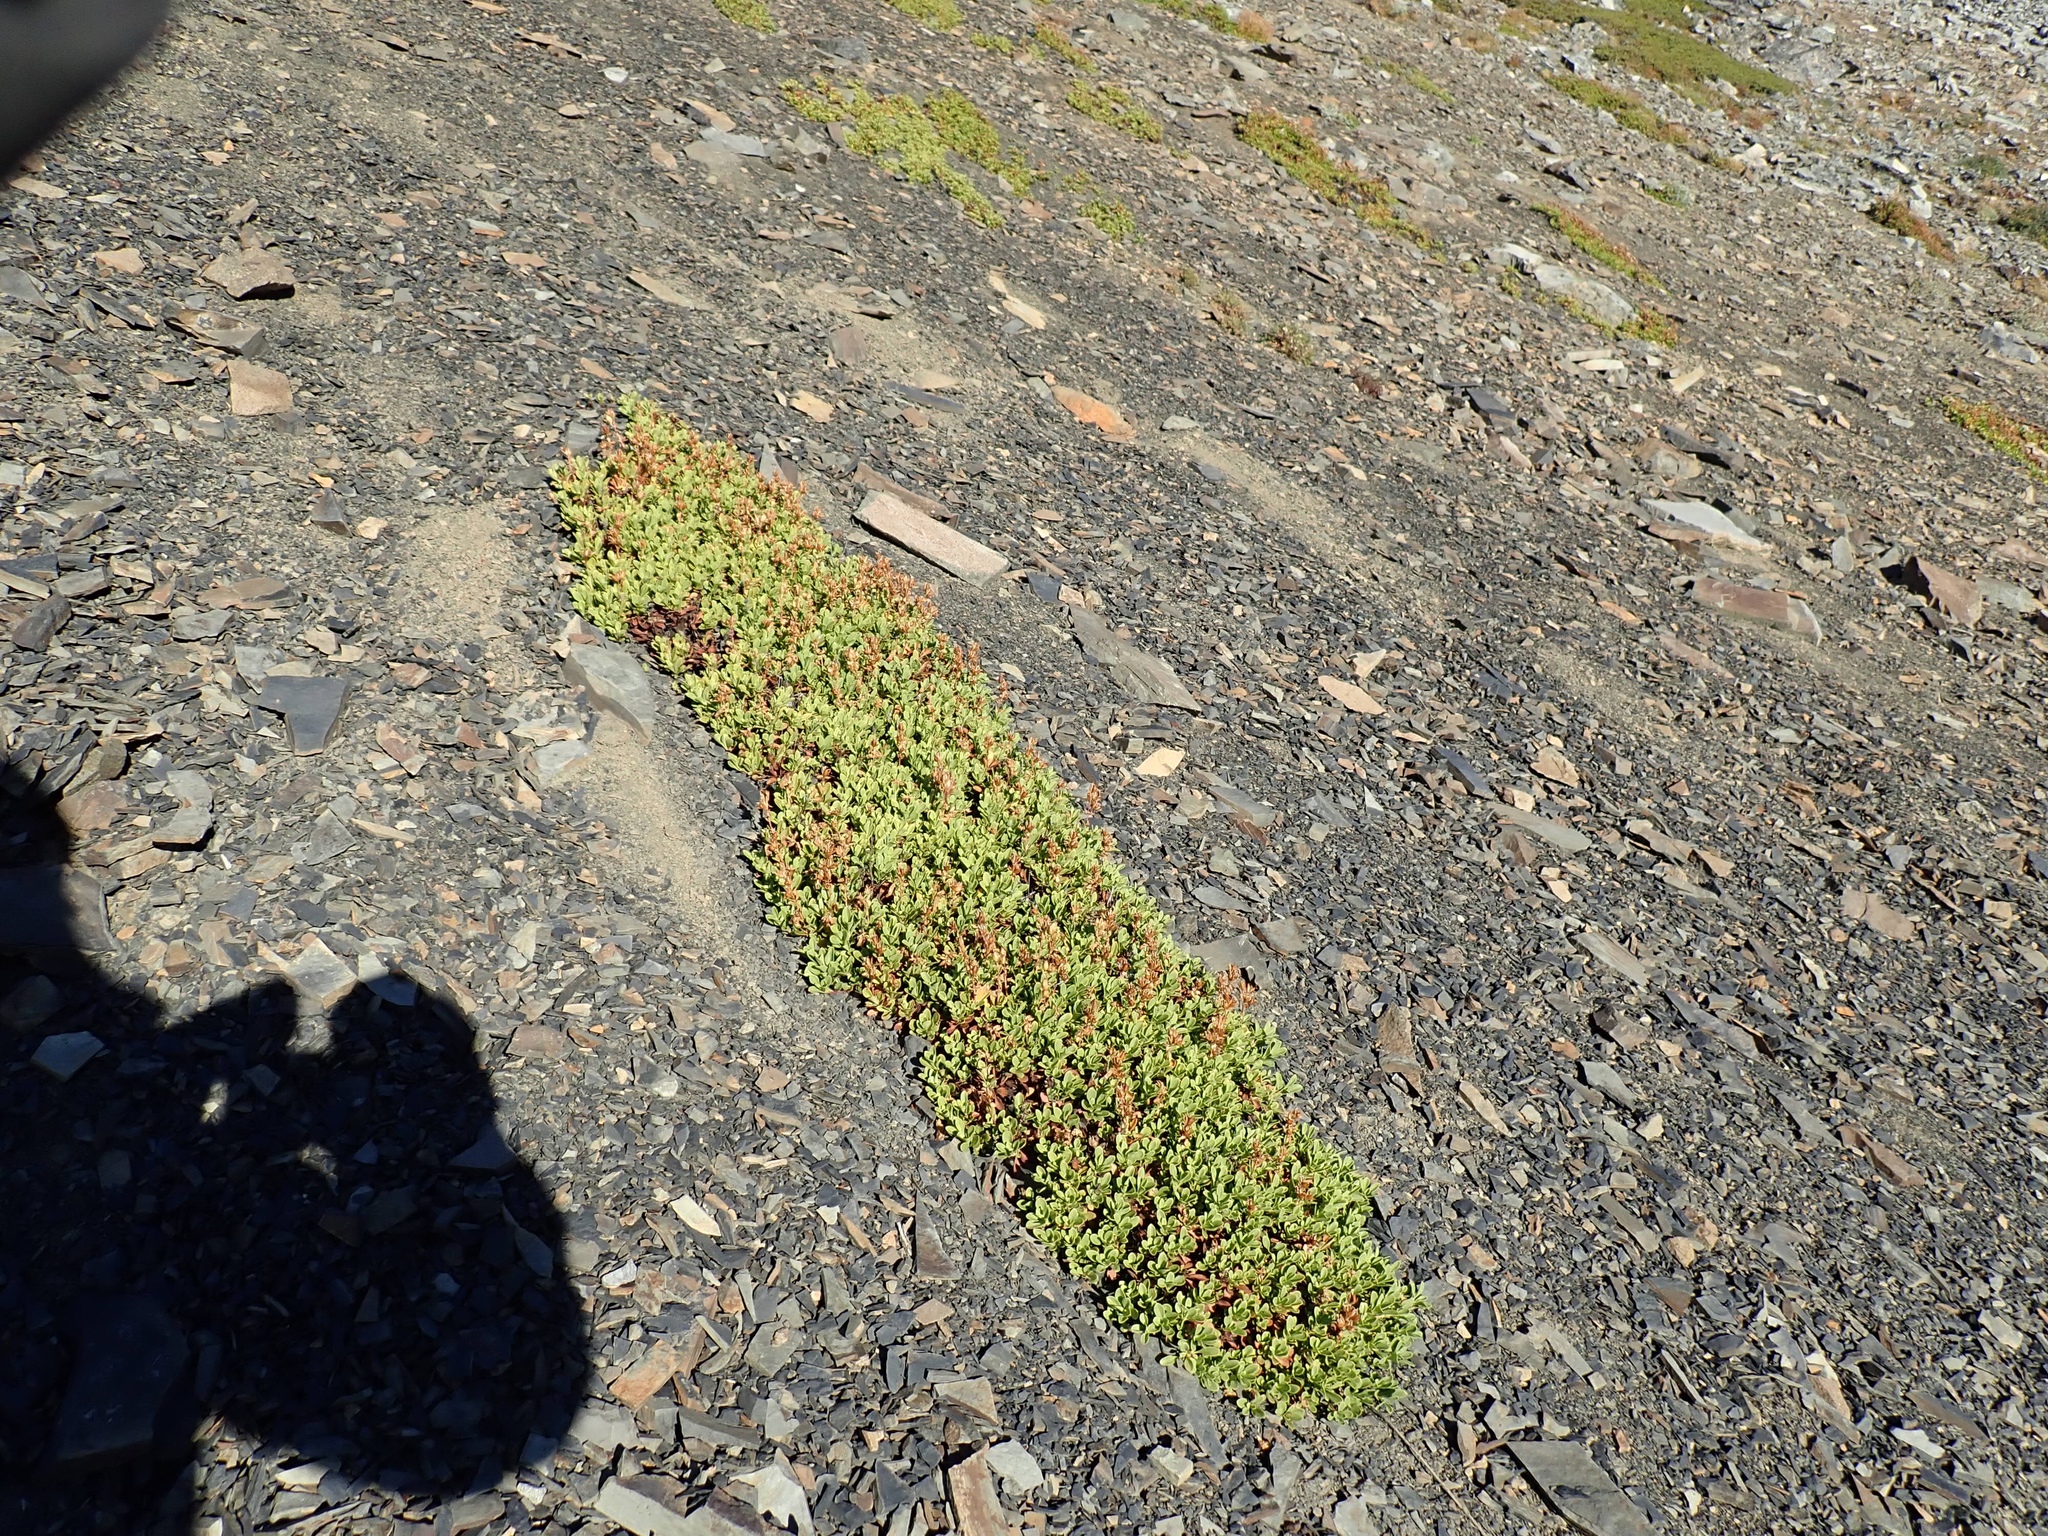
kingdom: Plantae
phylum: Tracheophyta
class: Magnoliopsida
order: Lamiales
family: Plantaginaceae
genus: Penstemon
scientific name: Penstemon davidsonii
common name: Davidson's penstemon
